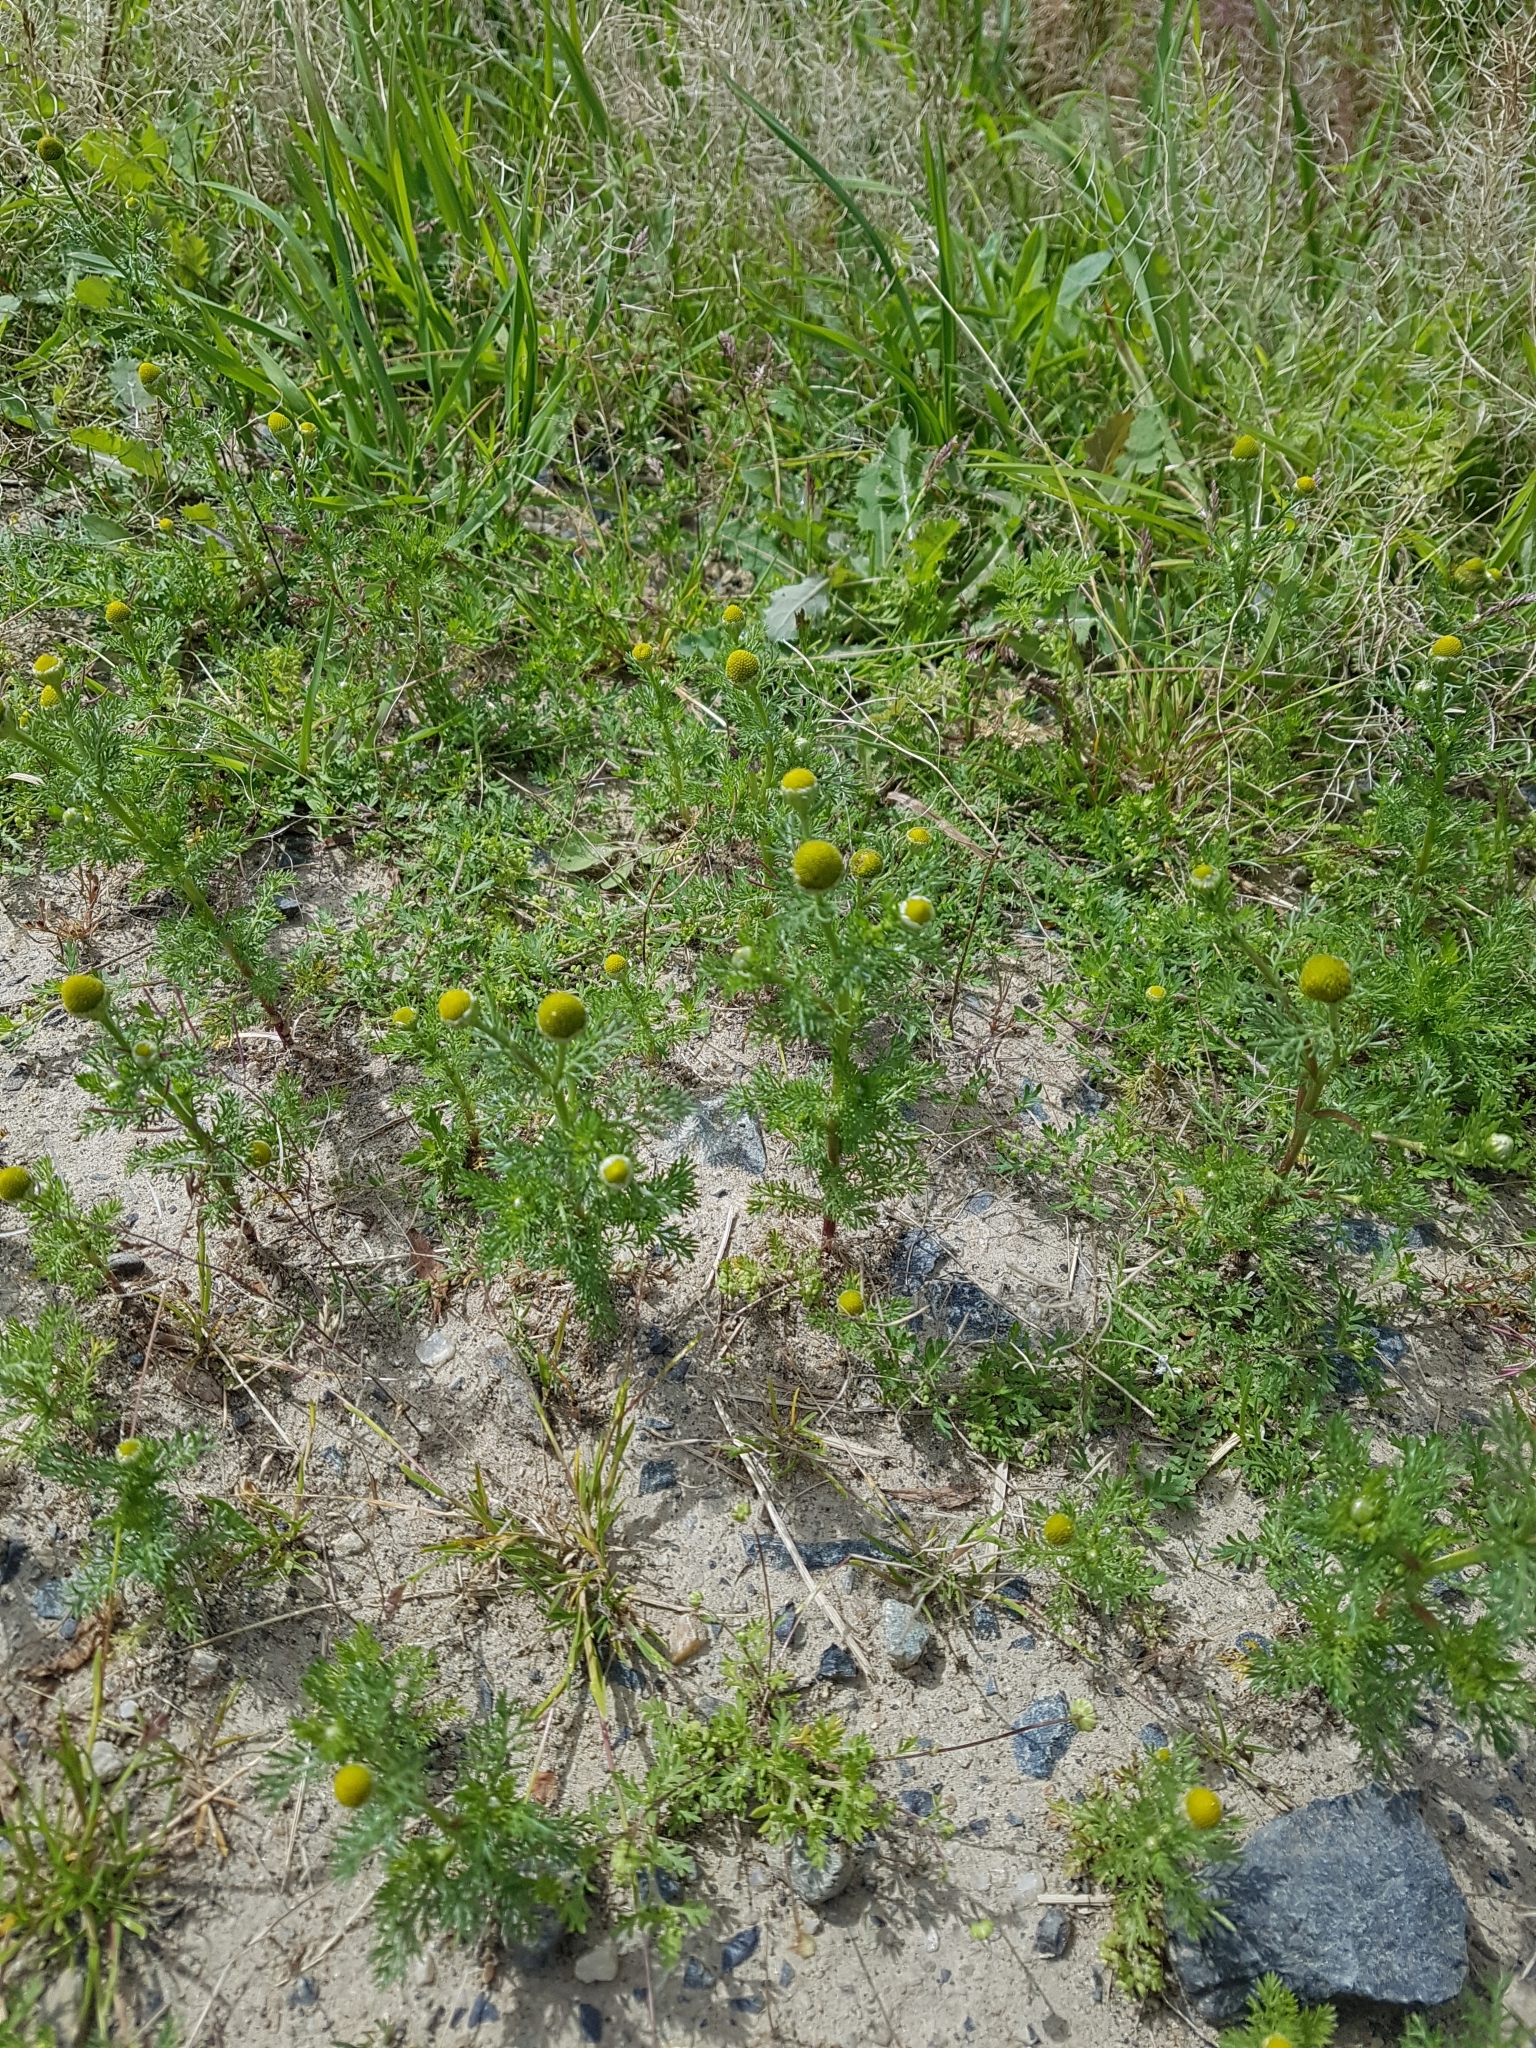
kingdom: Plantae
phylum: Tracheophyta
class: Magnoliopsida
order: Asterales
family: Asteraceae
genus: Matricaria
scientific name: Matricaria discoidea
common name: Disc mayweed
